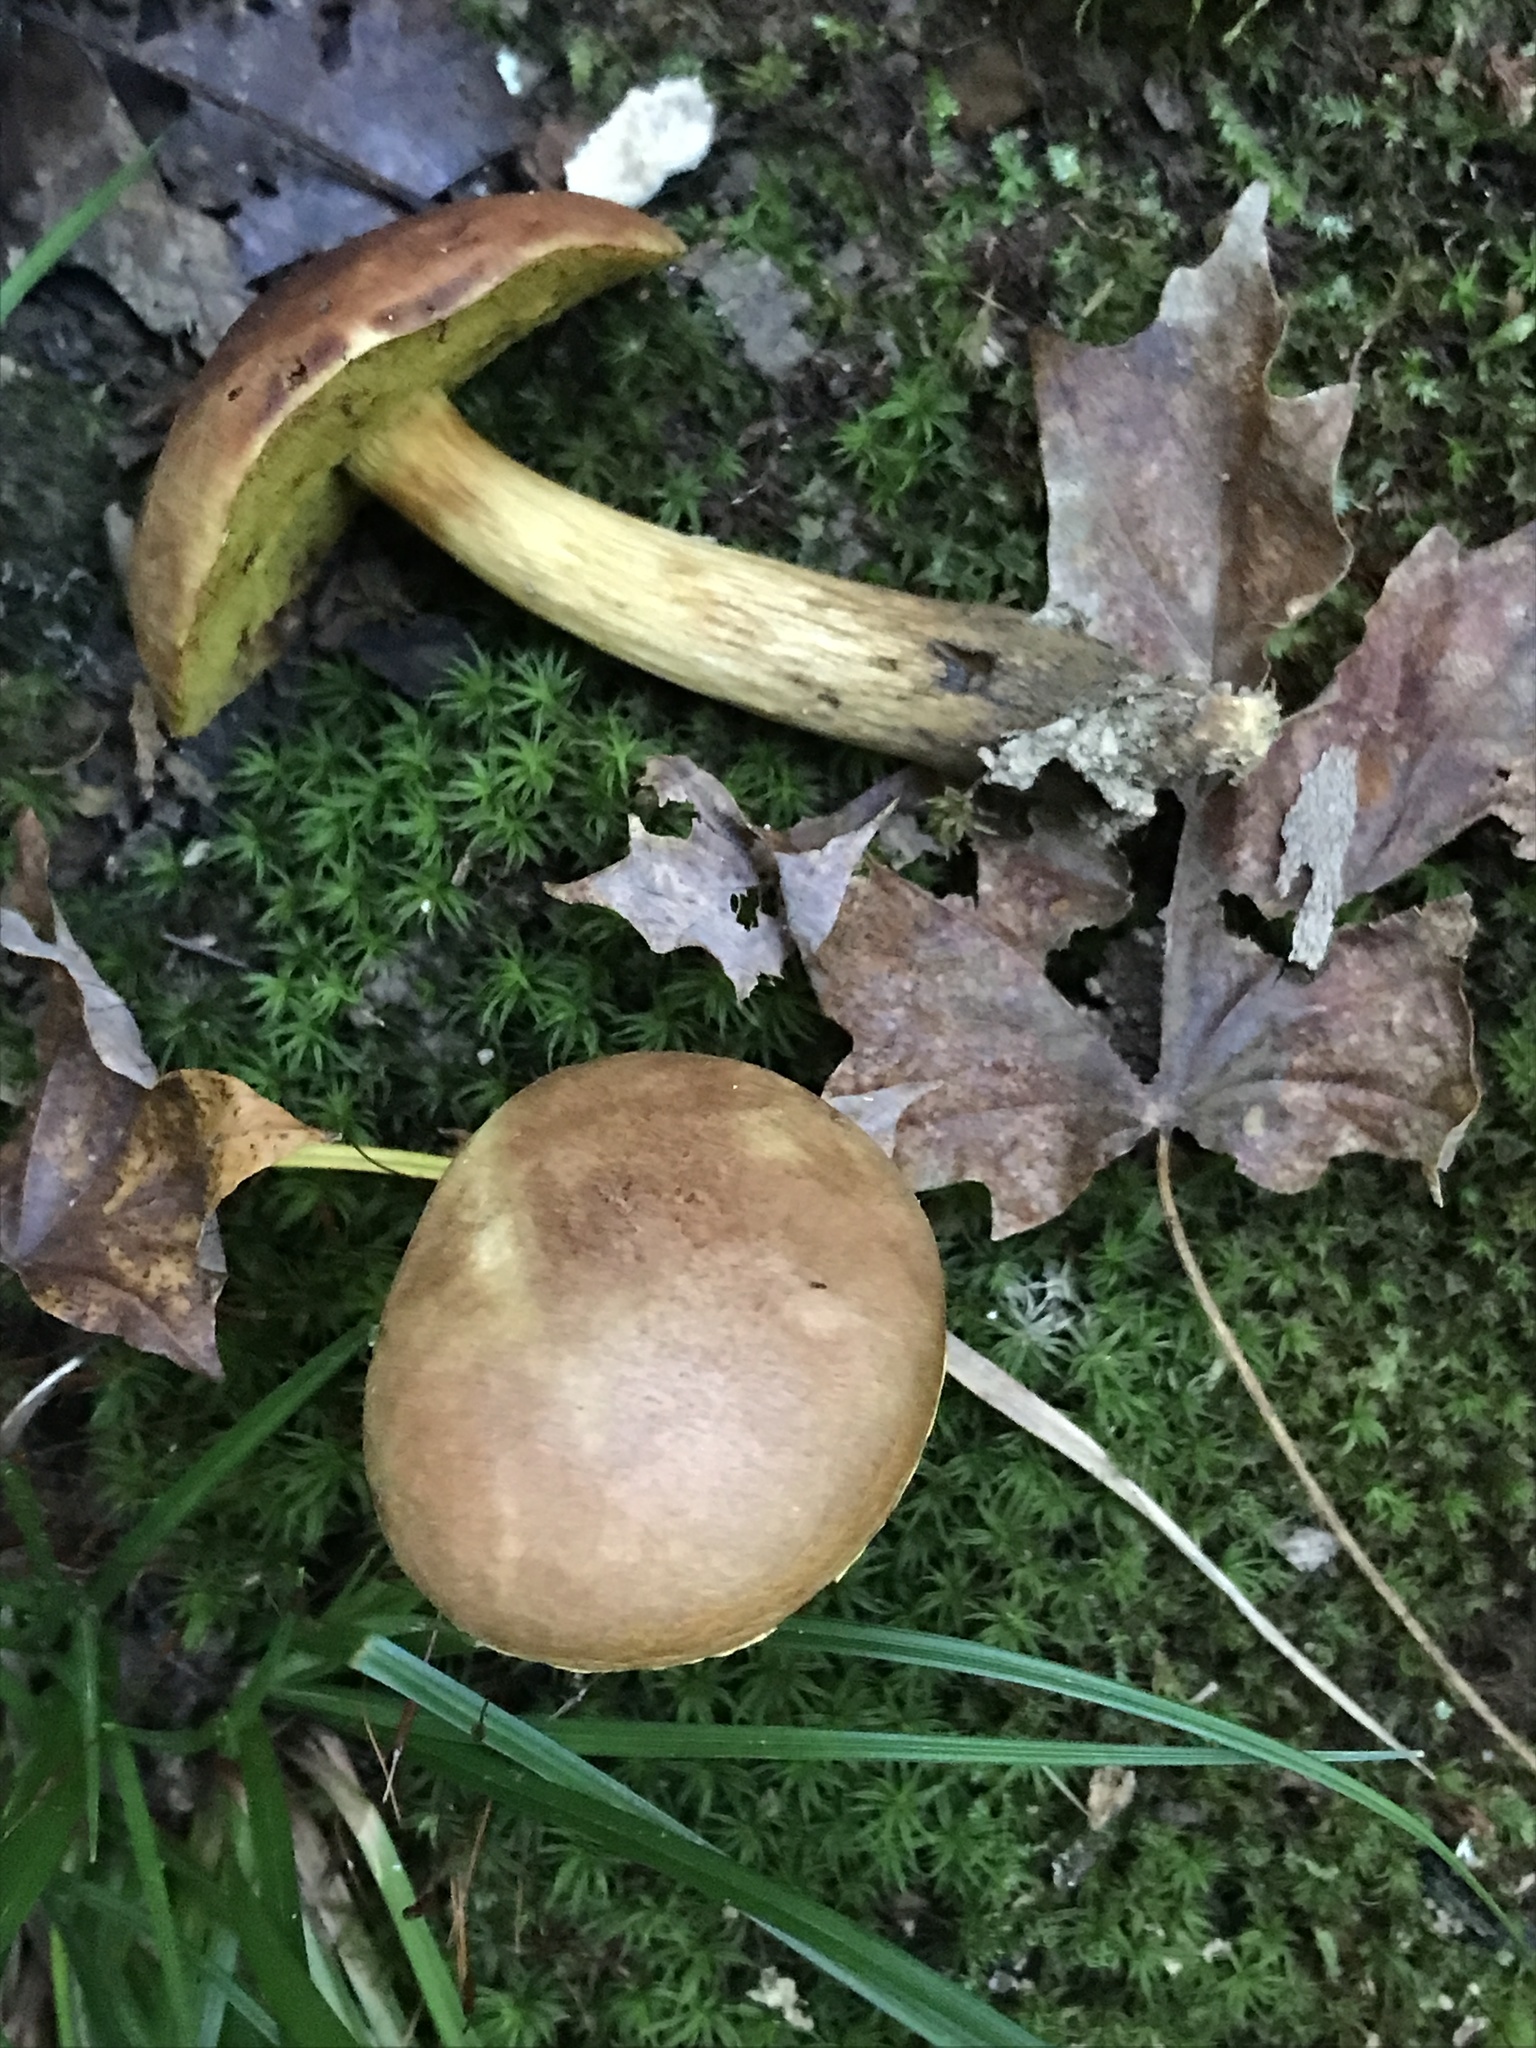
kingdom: Fungi
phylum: Basidiomycota
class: Agaricomycetes
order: Boletales
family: Boletaceae
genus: Aureoboletus
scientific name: Aureoboletus innixus
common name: Clustered brown bolete
